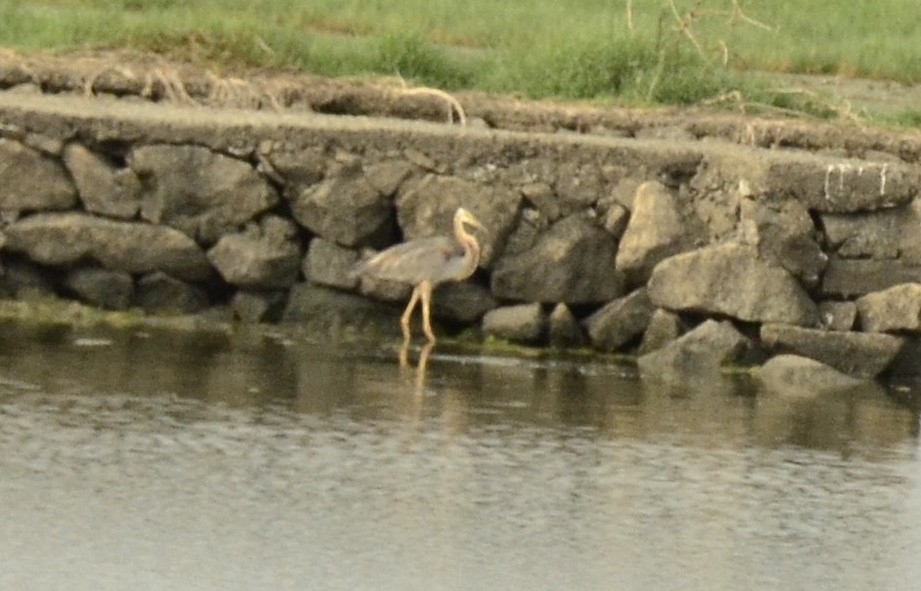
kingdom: Animalia
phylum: Chordata
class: Aves
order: Pelecaniformes
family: Ardeidae
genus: Ardea
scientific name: Ardea purpurea
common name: Purple heron
